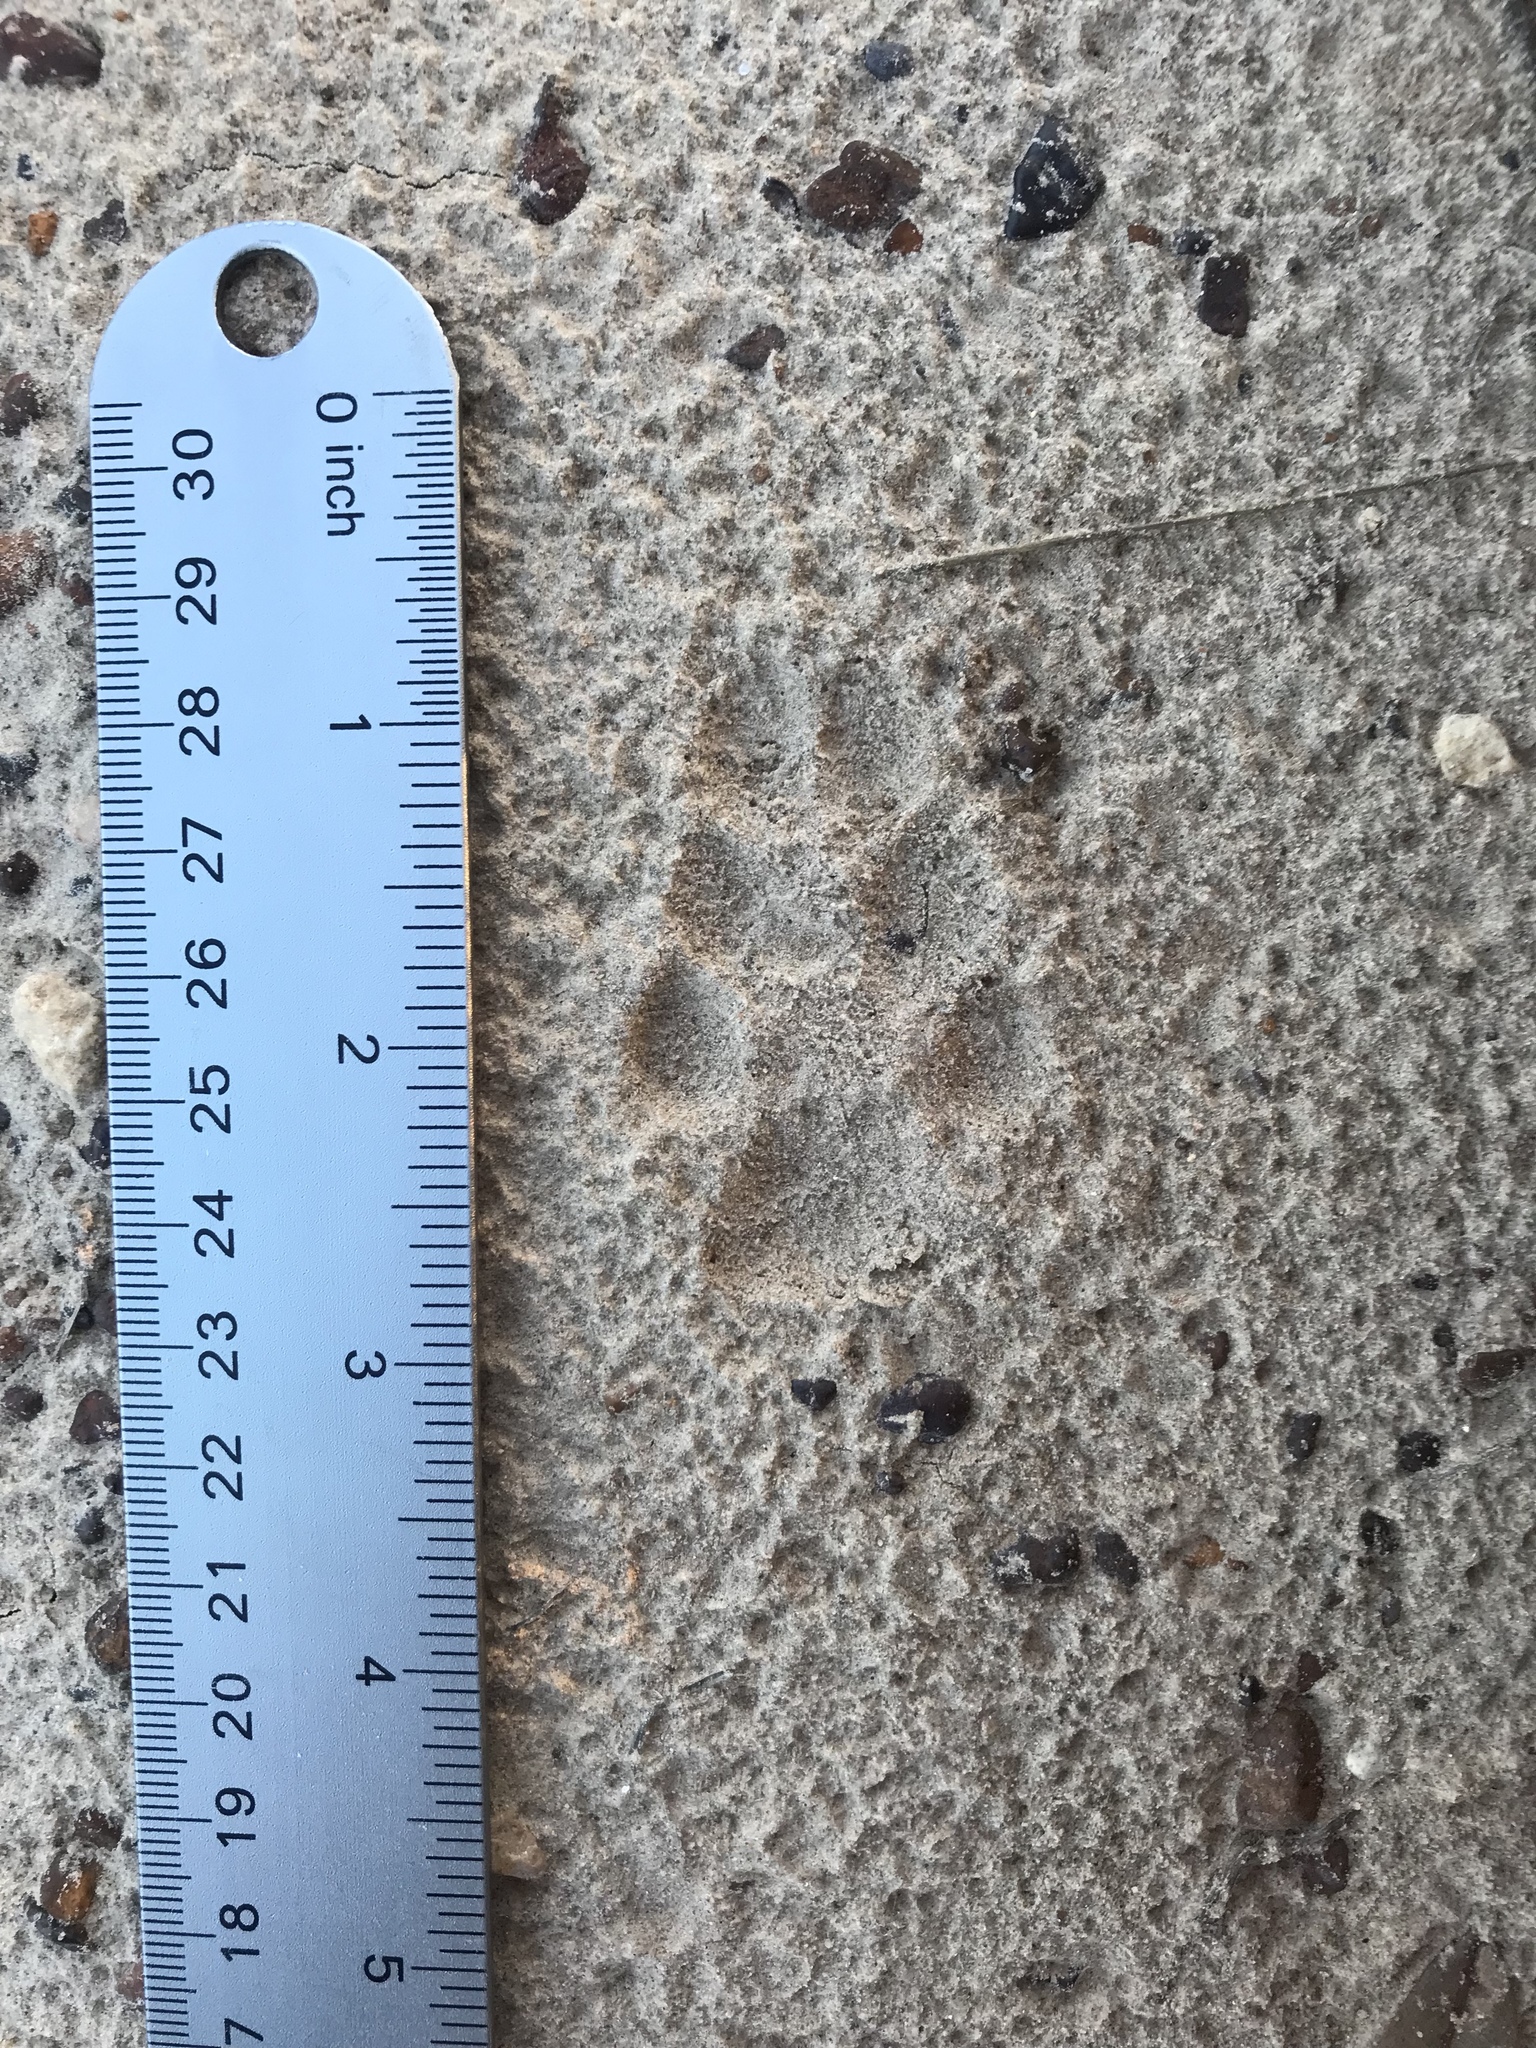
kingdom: Animalia
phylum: Chordata
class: Mammalia
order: Carnivora
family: Canidae
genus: Urocyon
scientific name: Urocyon cinereoargenteus
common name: Gray fox
